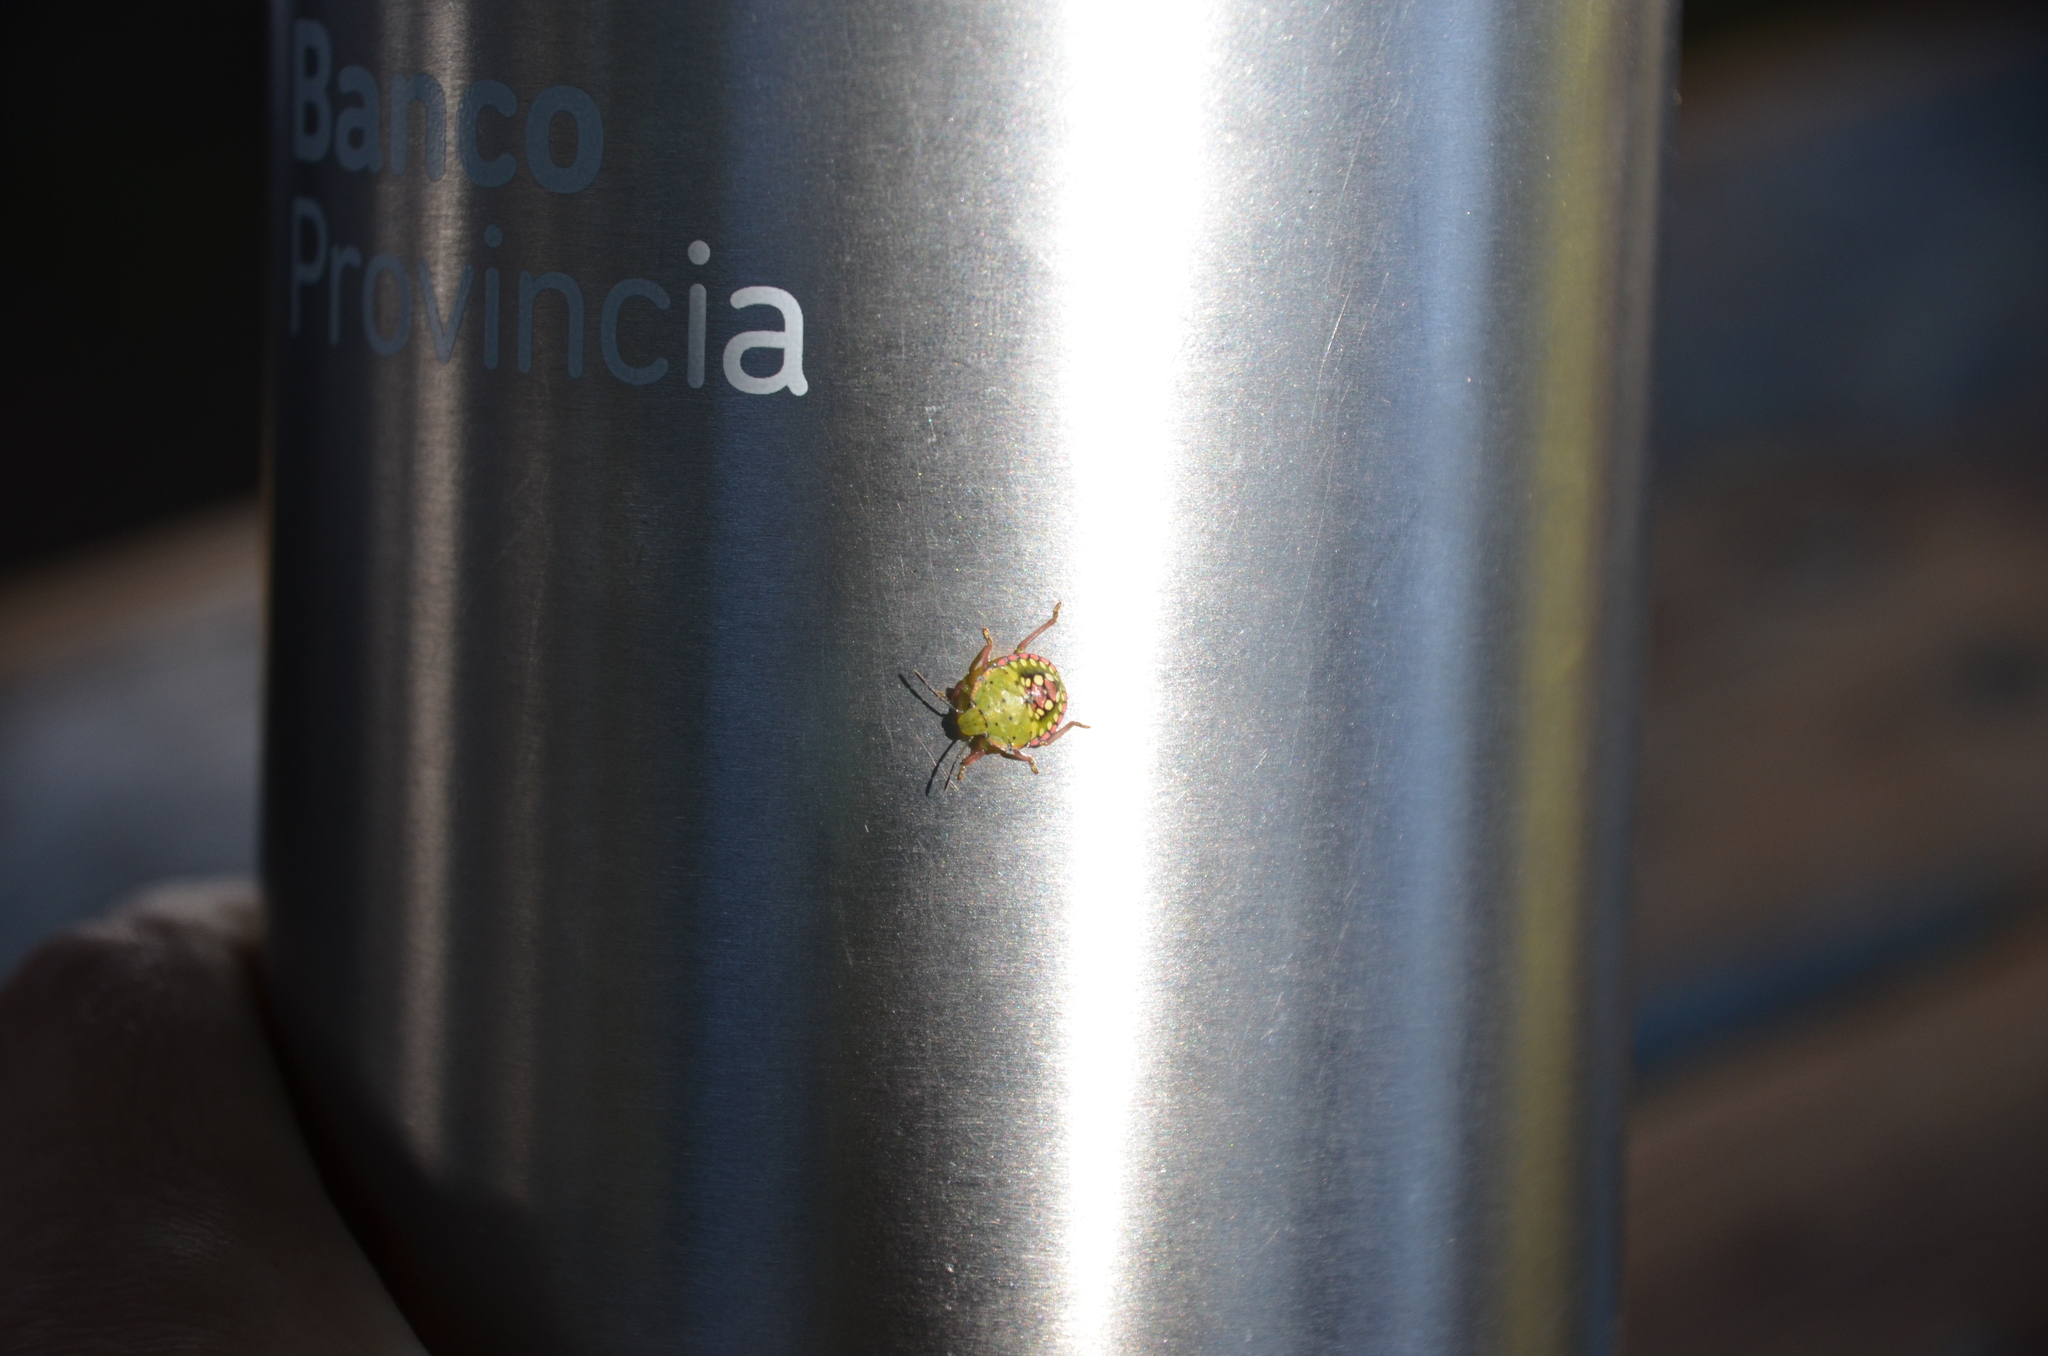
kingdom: Animalia
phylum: Arthropoda
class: Insecta
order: Hemiptera
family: Pentatomidae
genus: Nezara
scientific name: Nezara viridula
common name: Southern green stink bug
